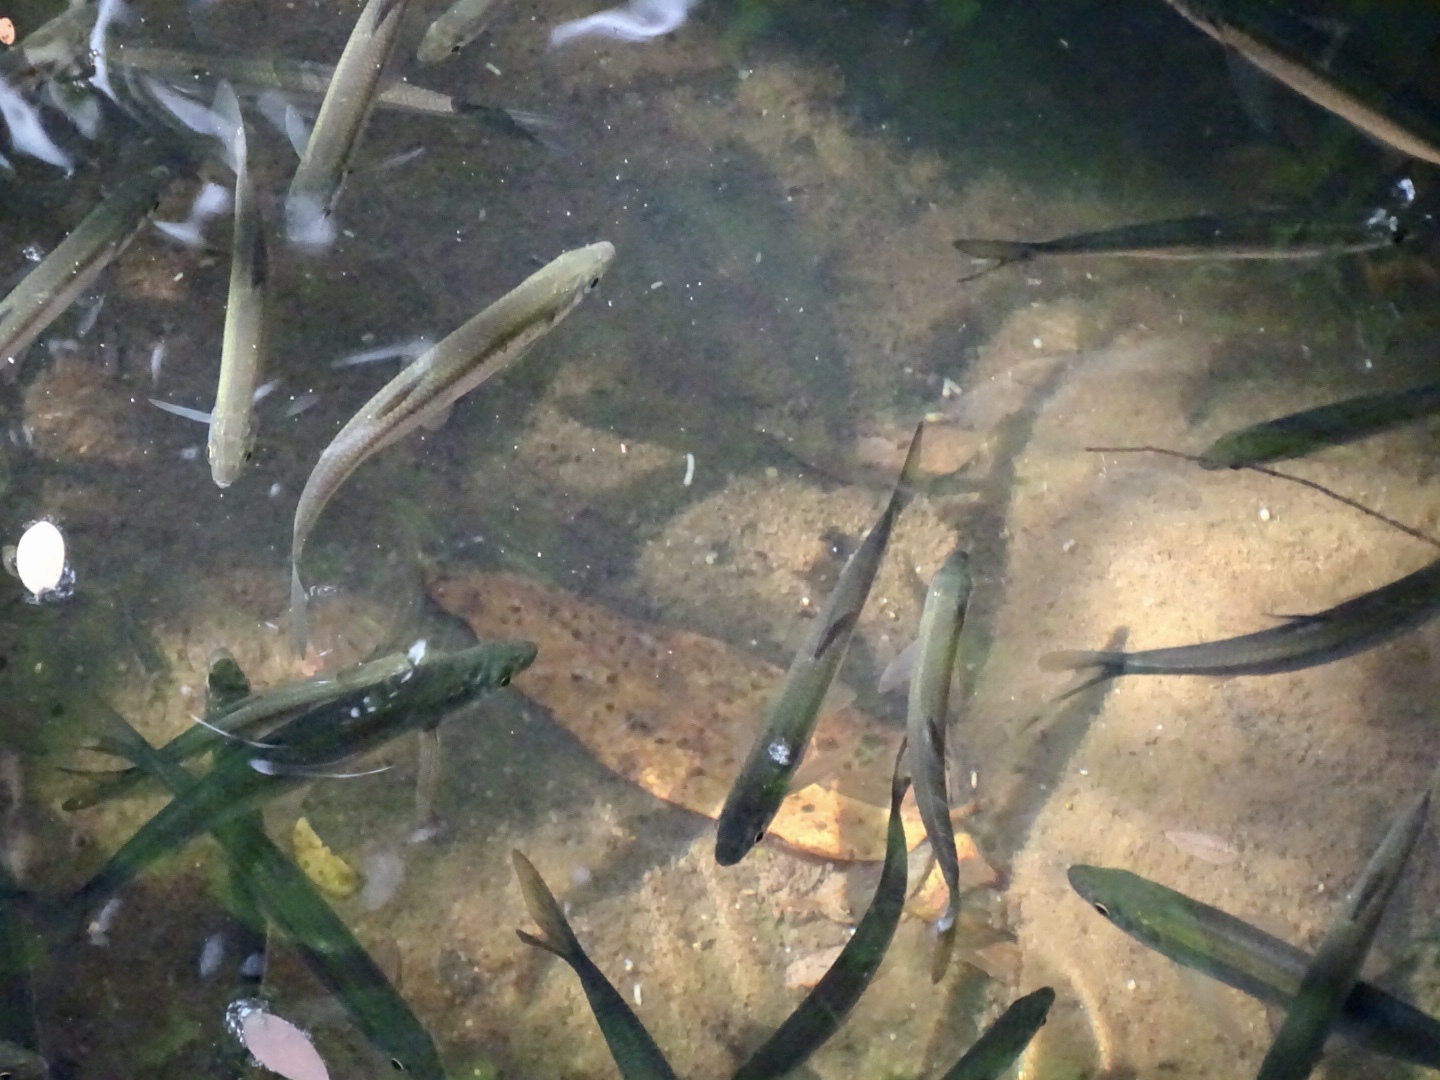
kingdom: Animalia
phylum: Chordata
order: Cypriniformes
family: Cyprinidae
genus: Hemiculter
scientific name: Hemiculter leucisculus
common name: Common sawbelly
